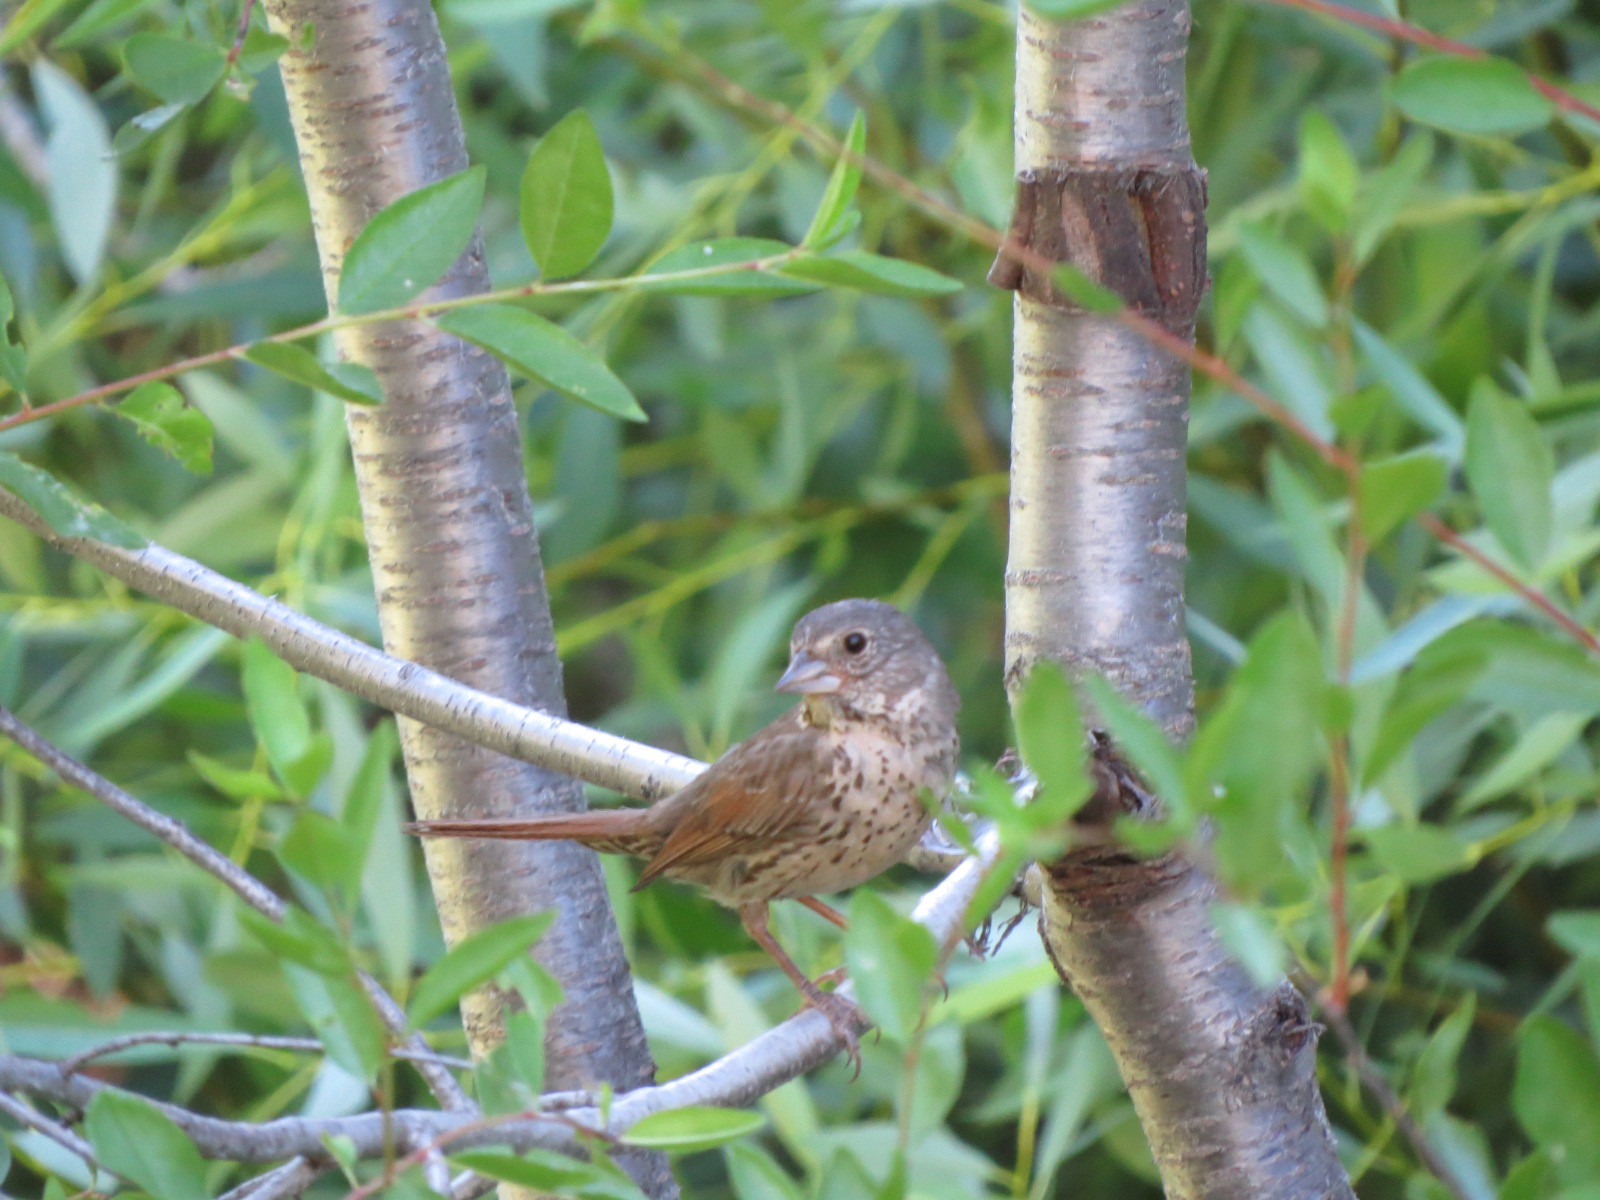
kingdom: Animalia
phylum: Chordata
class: Aves
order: Passeriformes
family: Passerellidae
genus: Passerella
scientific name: Passerella megarhyncha
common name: Thick-billed fox sparrow
